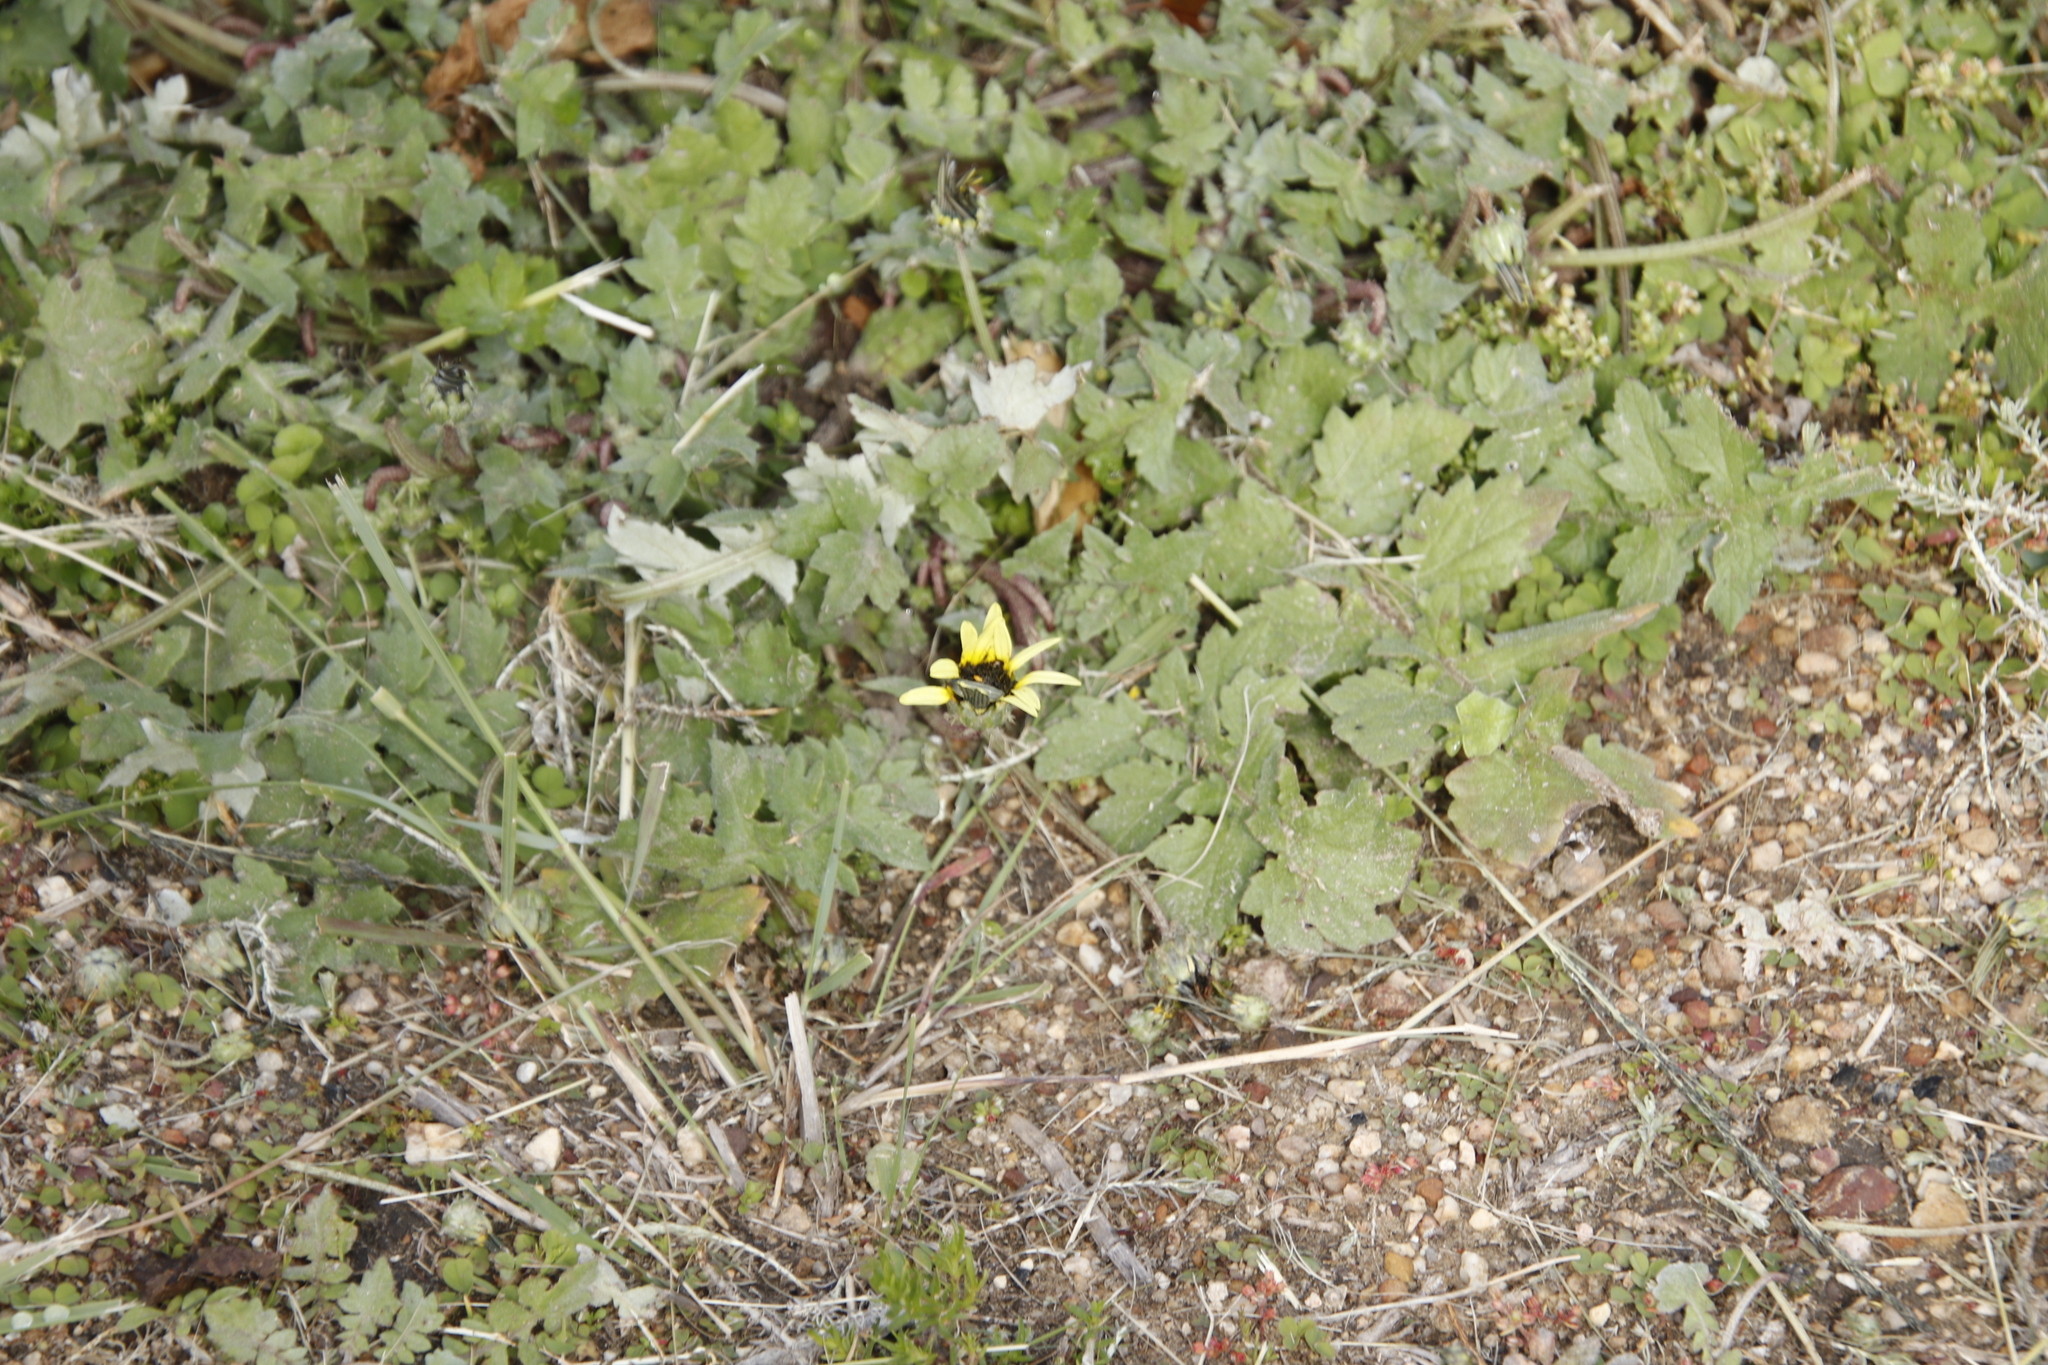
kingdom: Plantae
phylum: Tracheophyta
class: Magnoliopsida
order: Asterales
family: Asteraceae
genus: Arctotheca
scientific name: Arctotheca calendula
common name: Capeweed
